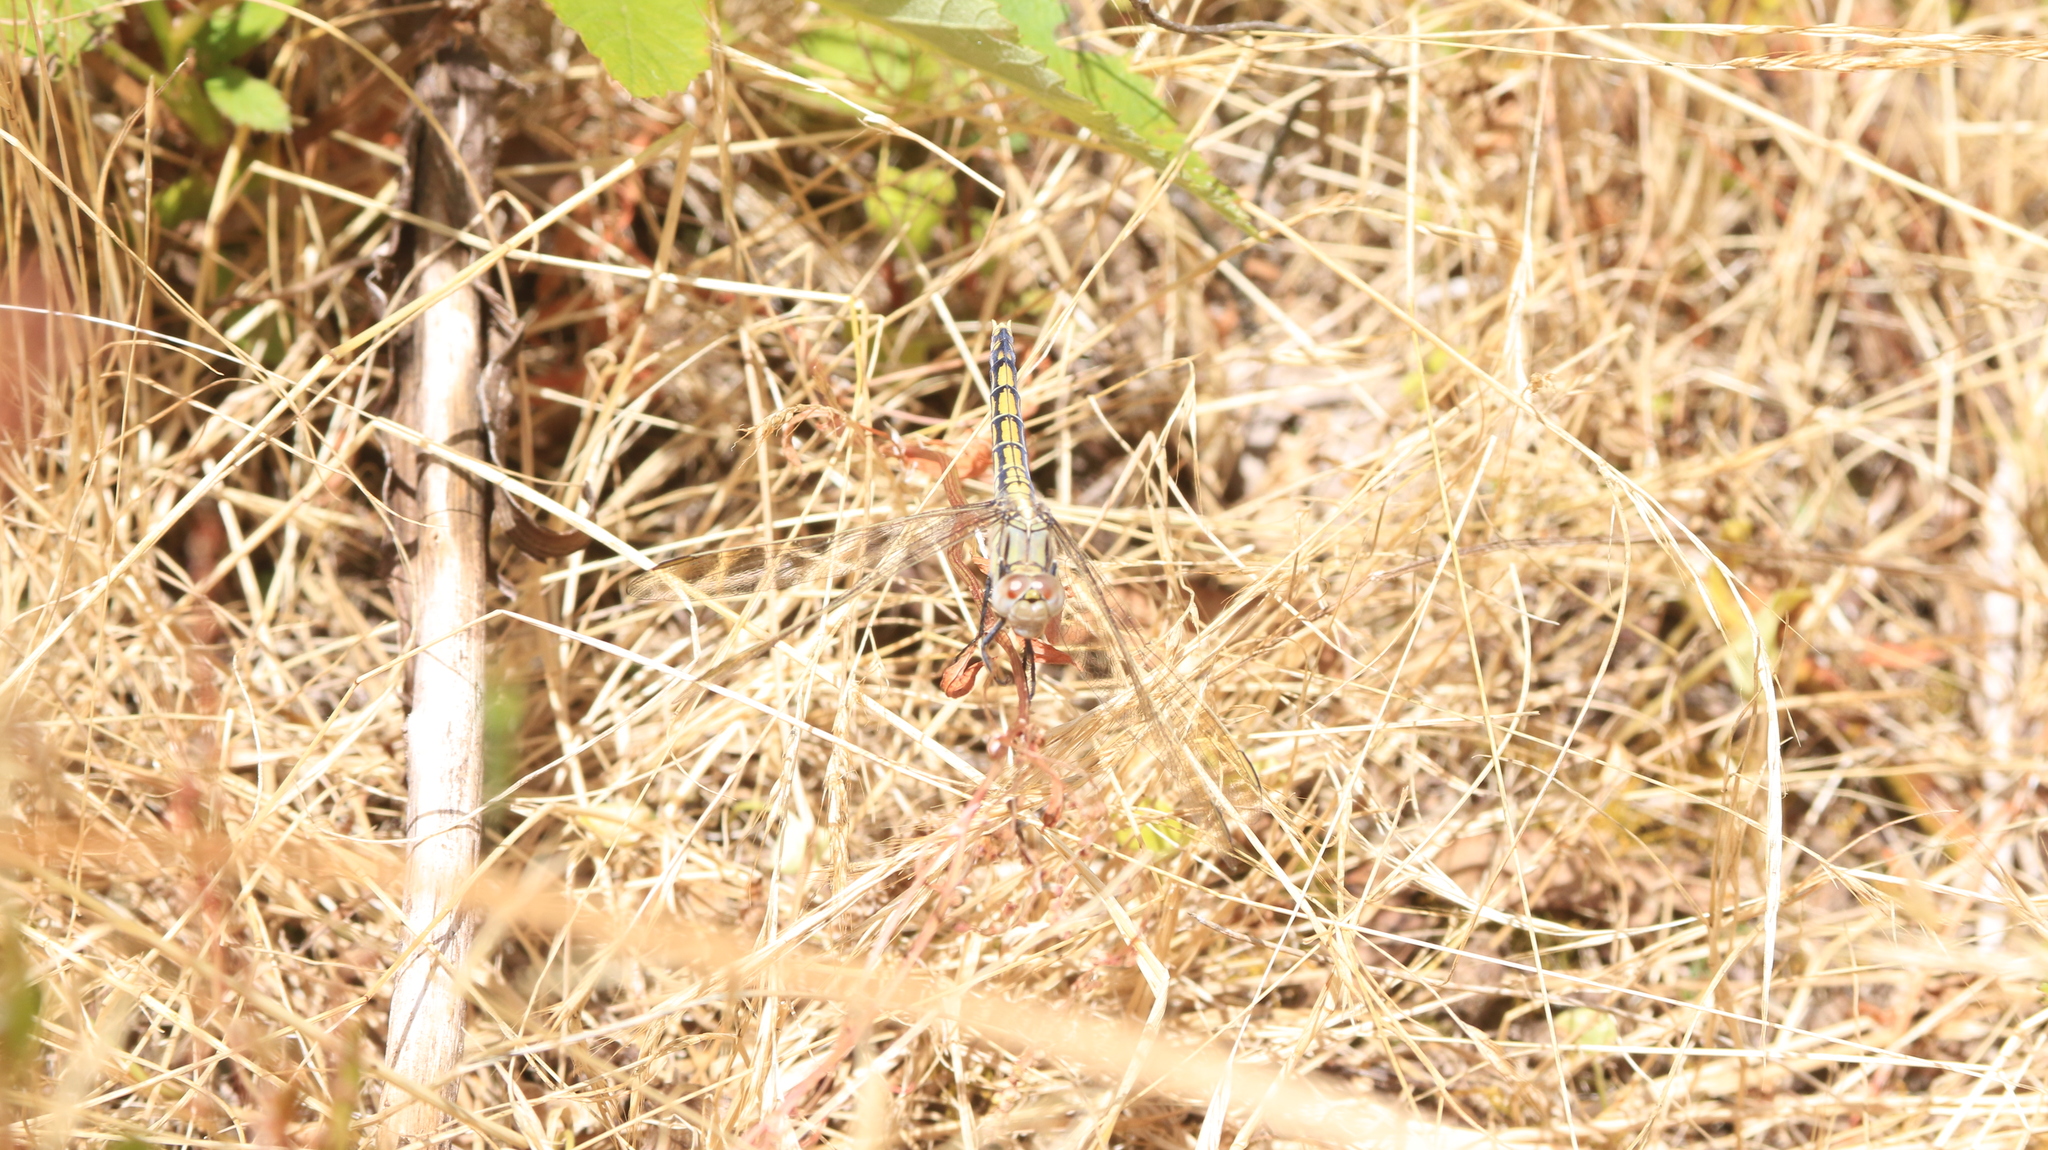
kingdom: Animalia
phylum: Arthropoda
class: Insecta
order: Odonata
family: Libellulidae
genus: Orthetrum
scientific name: Orthetrum caledonicum
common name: Blue skimmer
